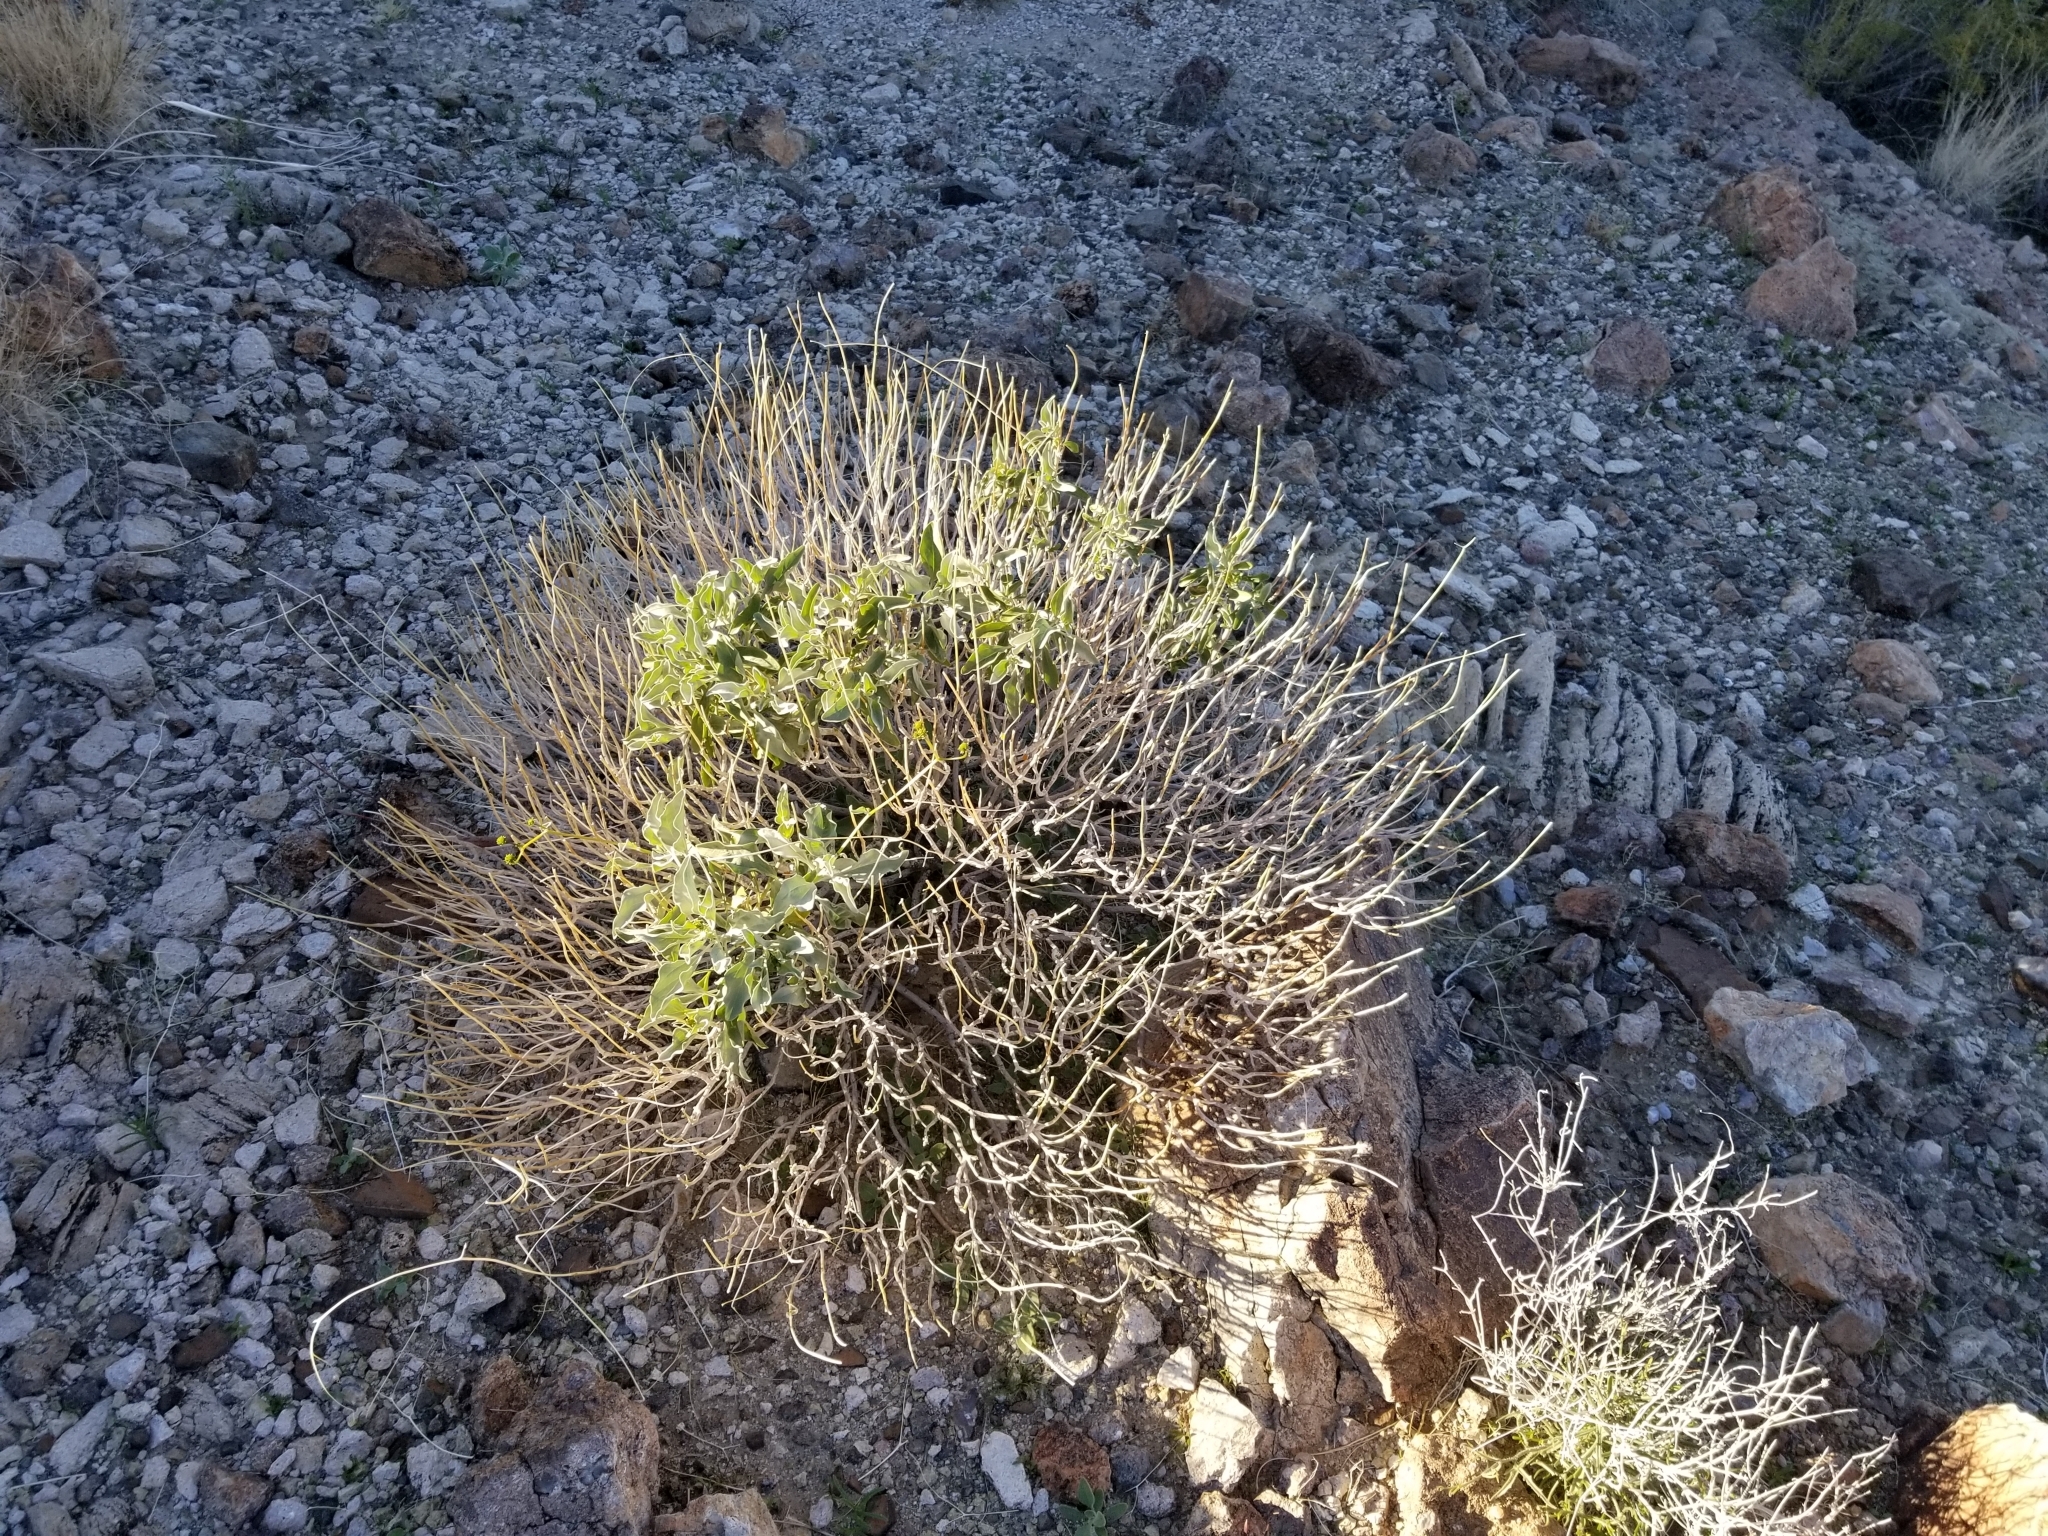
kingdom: Plantae
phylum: Tracheophyta
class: Magnoliopsida
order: Asterales
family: Asteraceae
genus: Encelia
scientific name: Encelia farinosa
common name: Brittlebush
